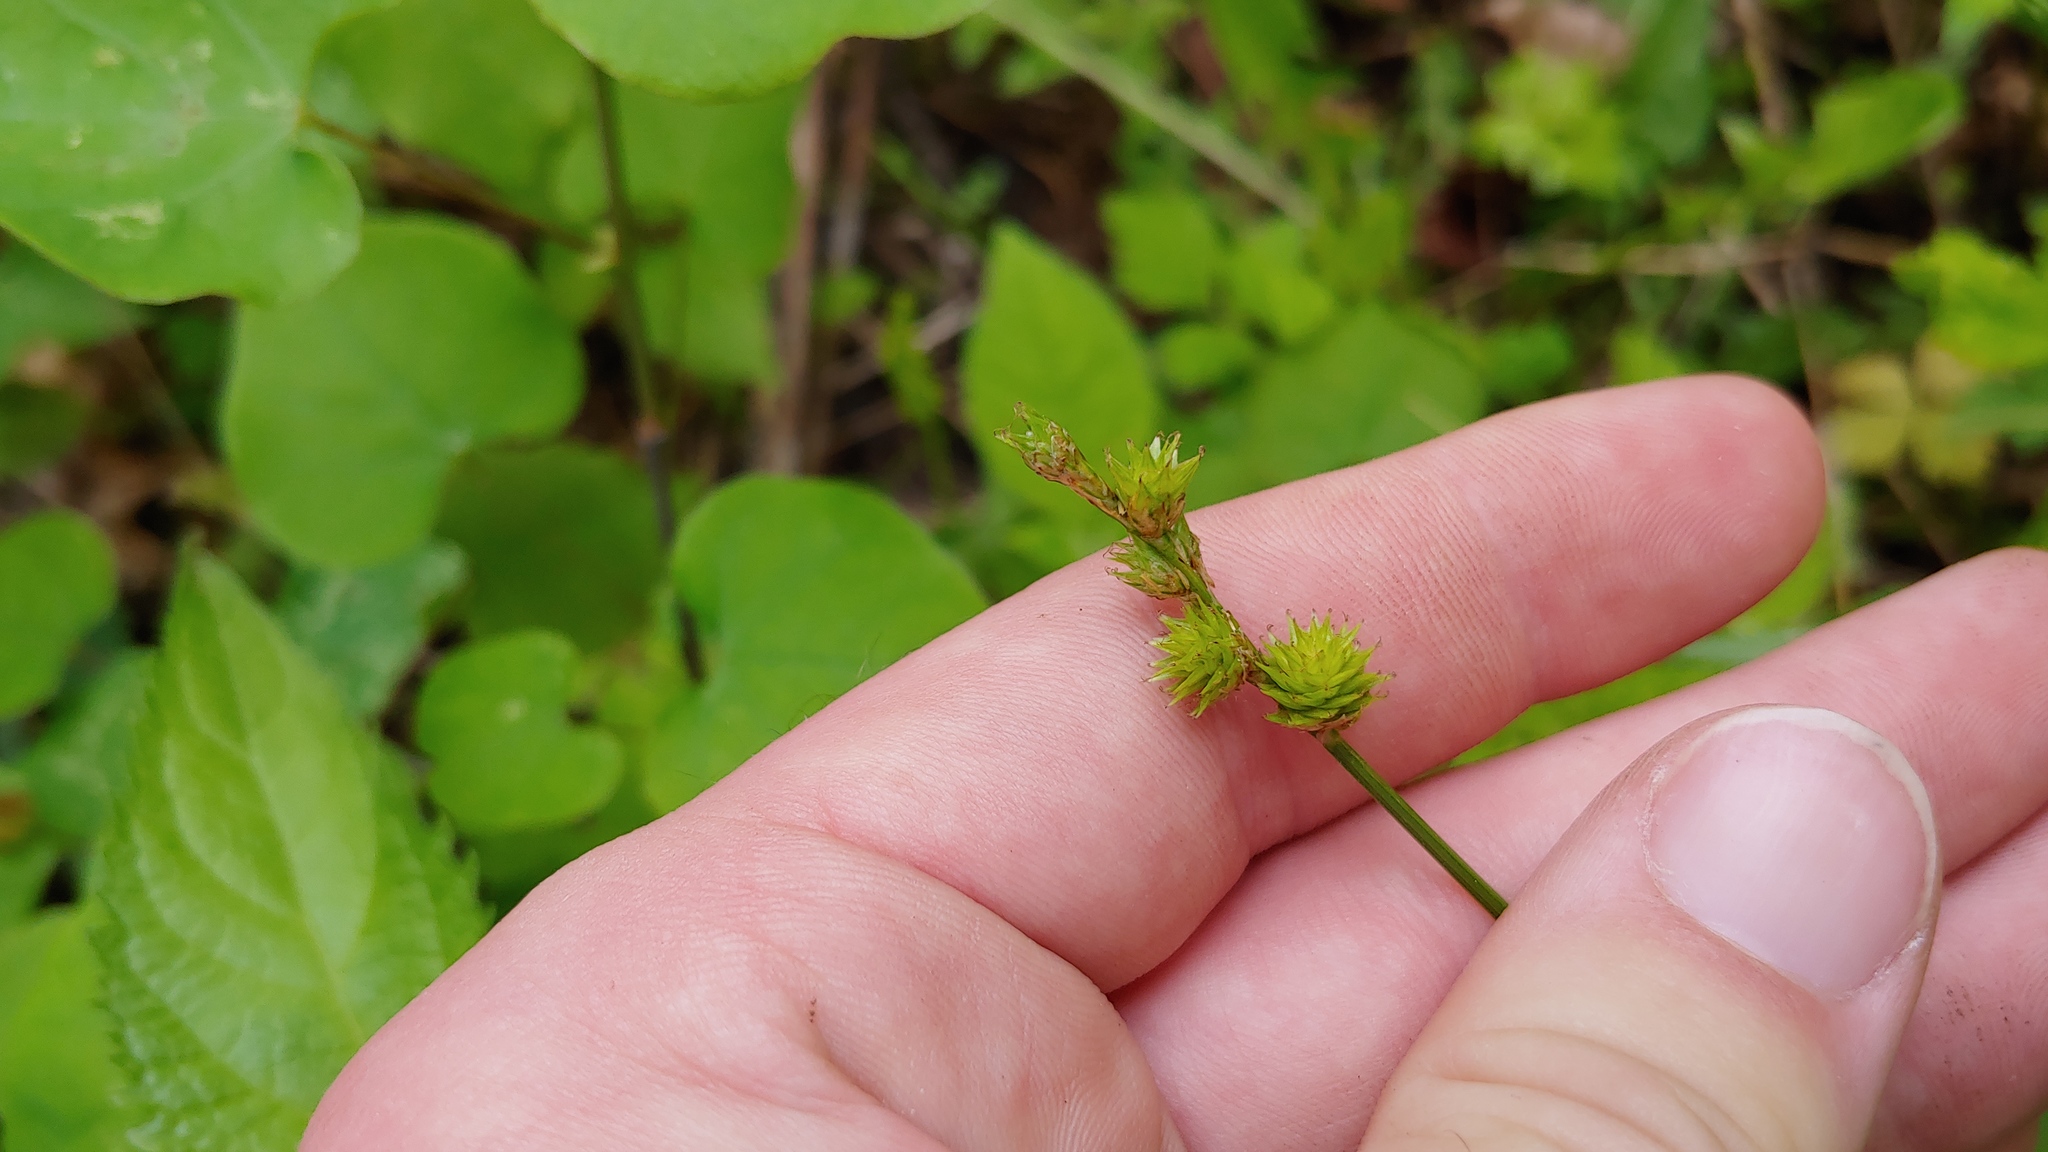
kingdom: Plantae
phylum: Tracheophyta
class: Liliopsida
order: Poales
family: Cyperaceae
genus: Carex
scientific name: Carex normalis
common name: Greater straw sedge
